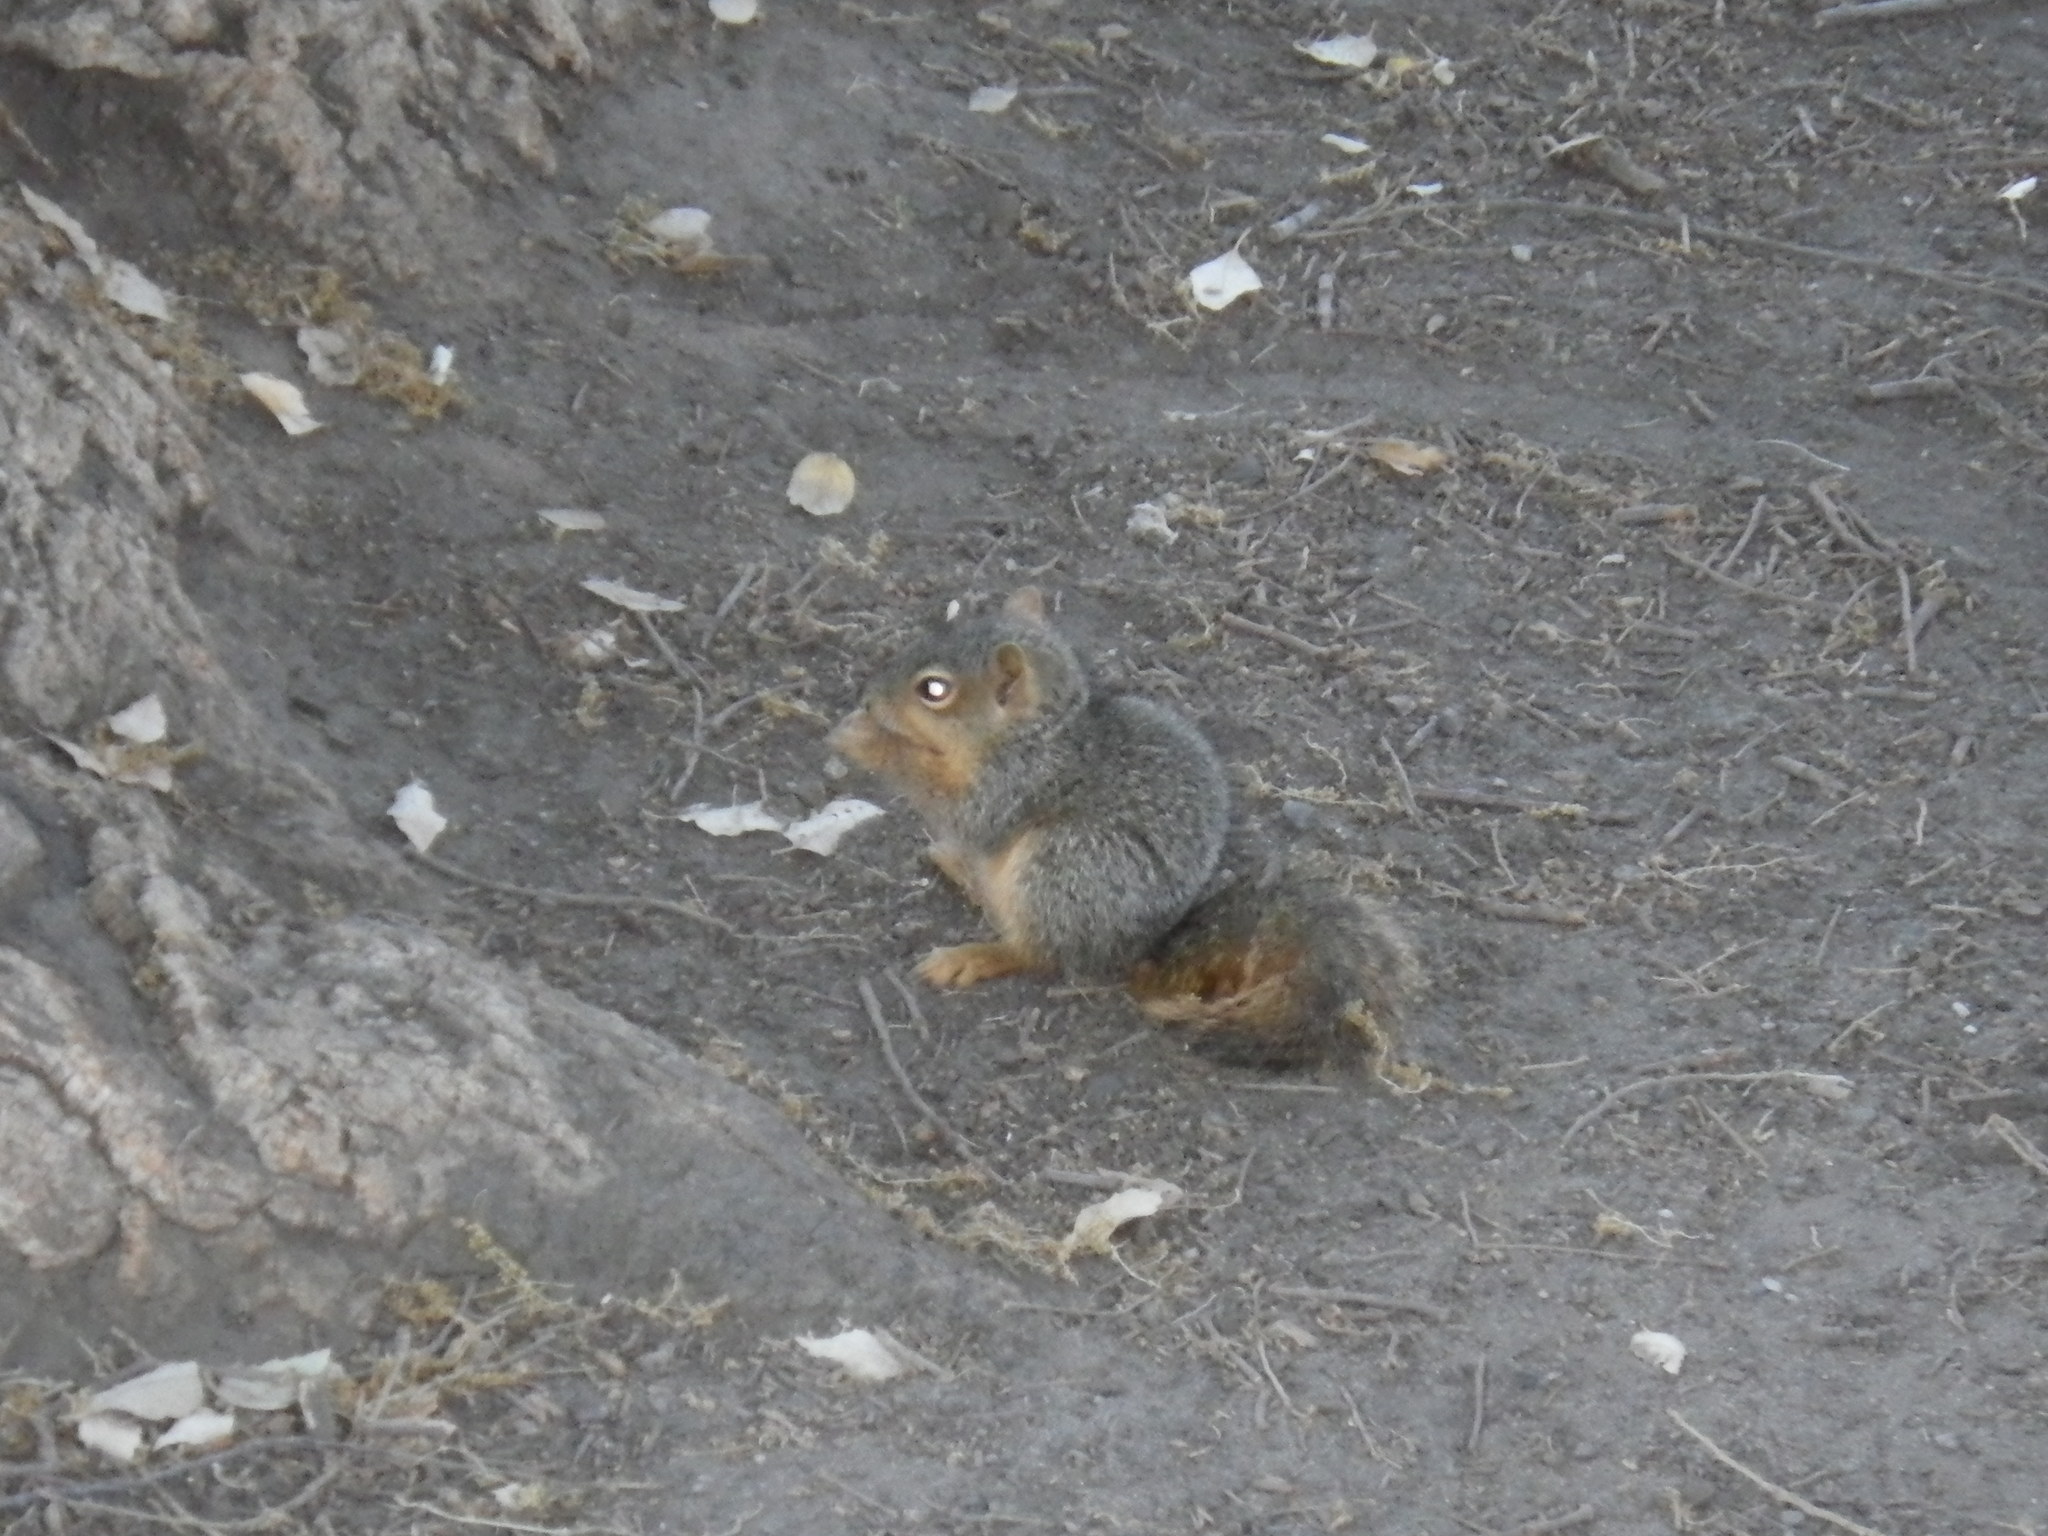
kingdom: Animalia
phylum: Chordata
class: Mammalia
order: Rodentia
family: Sciuridae
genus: Sciurus
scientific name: Sciurus niger
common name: Fox squirrel
